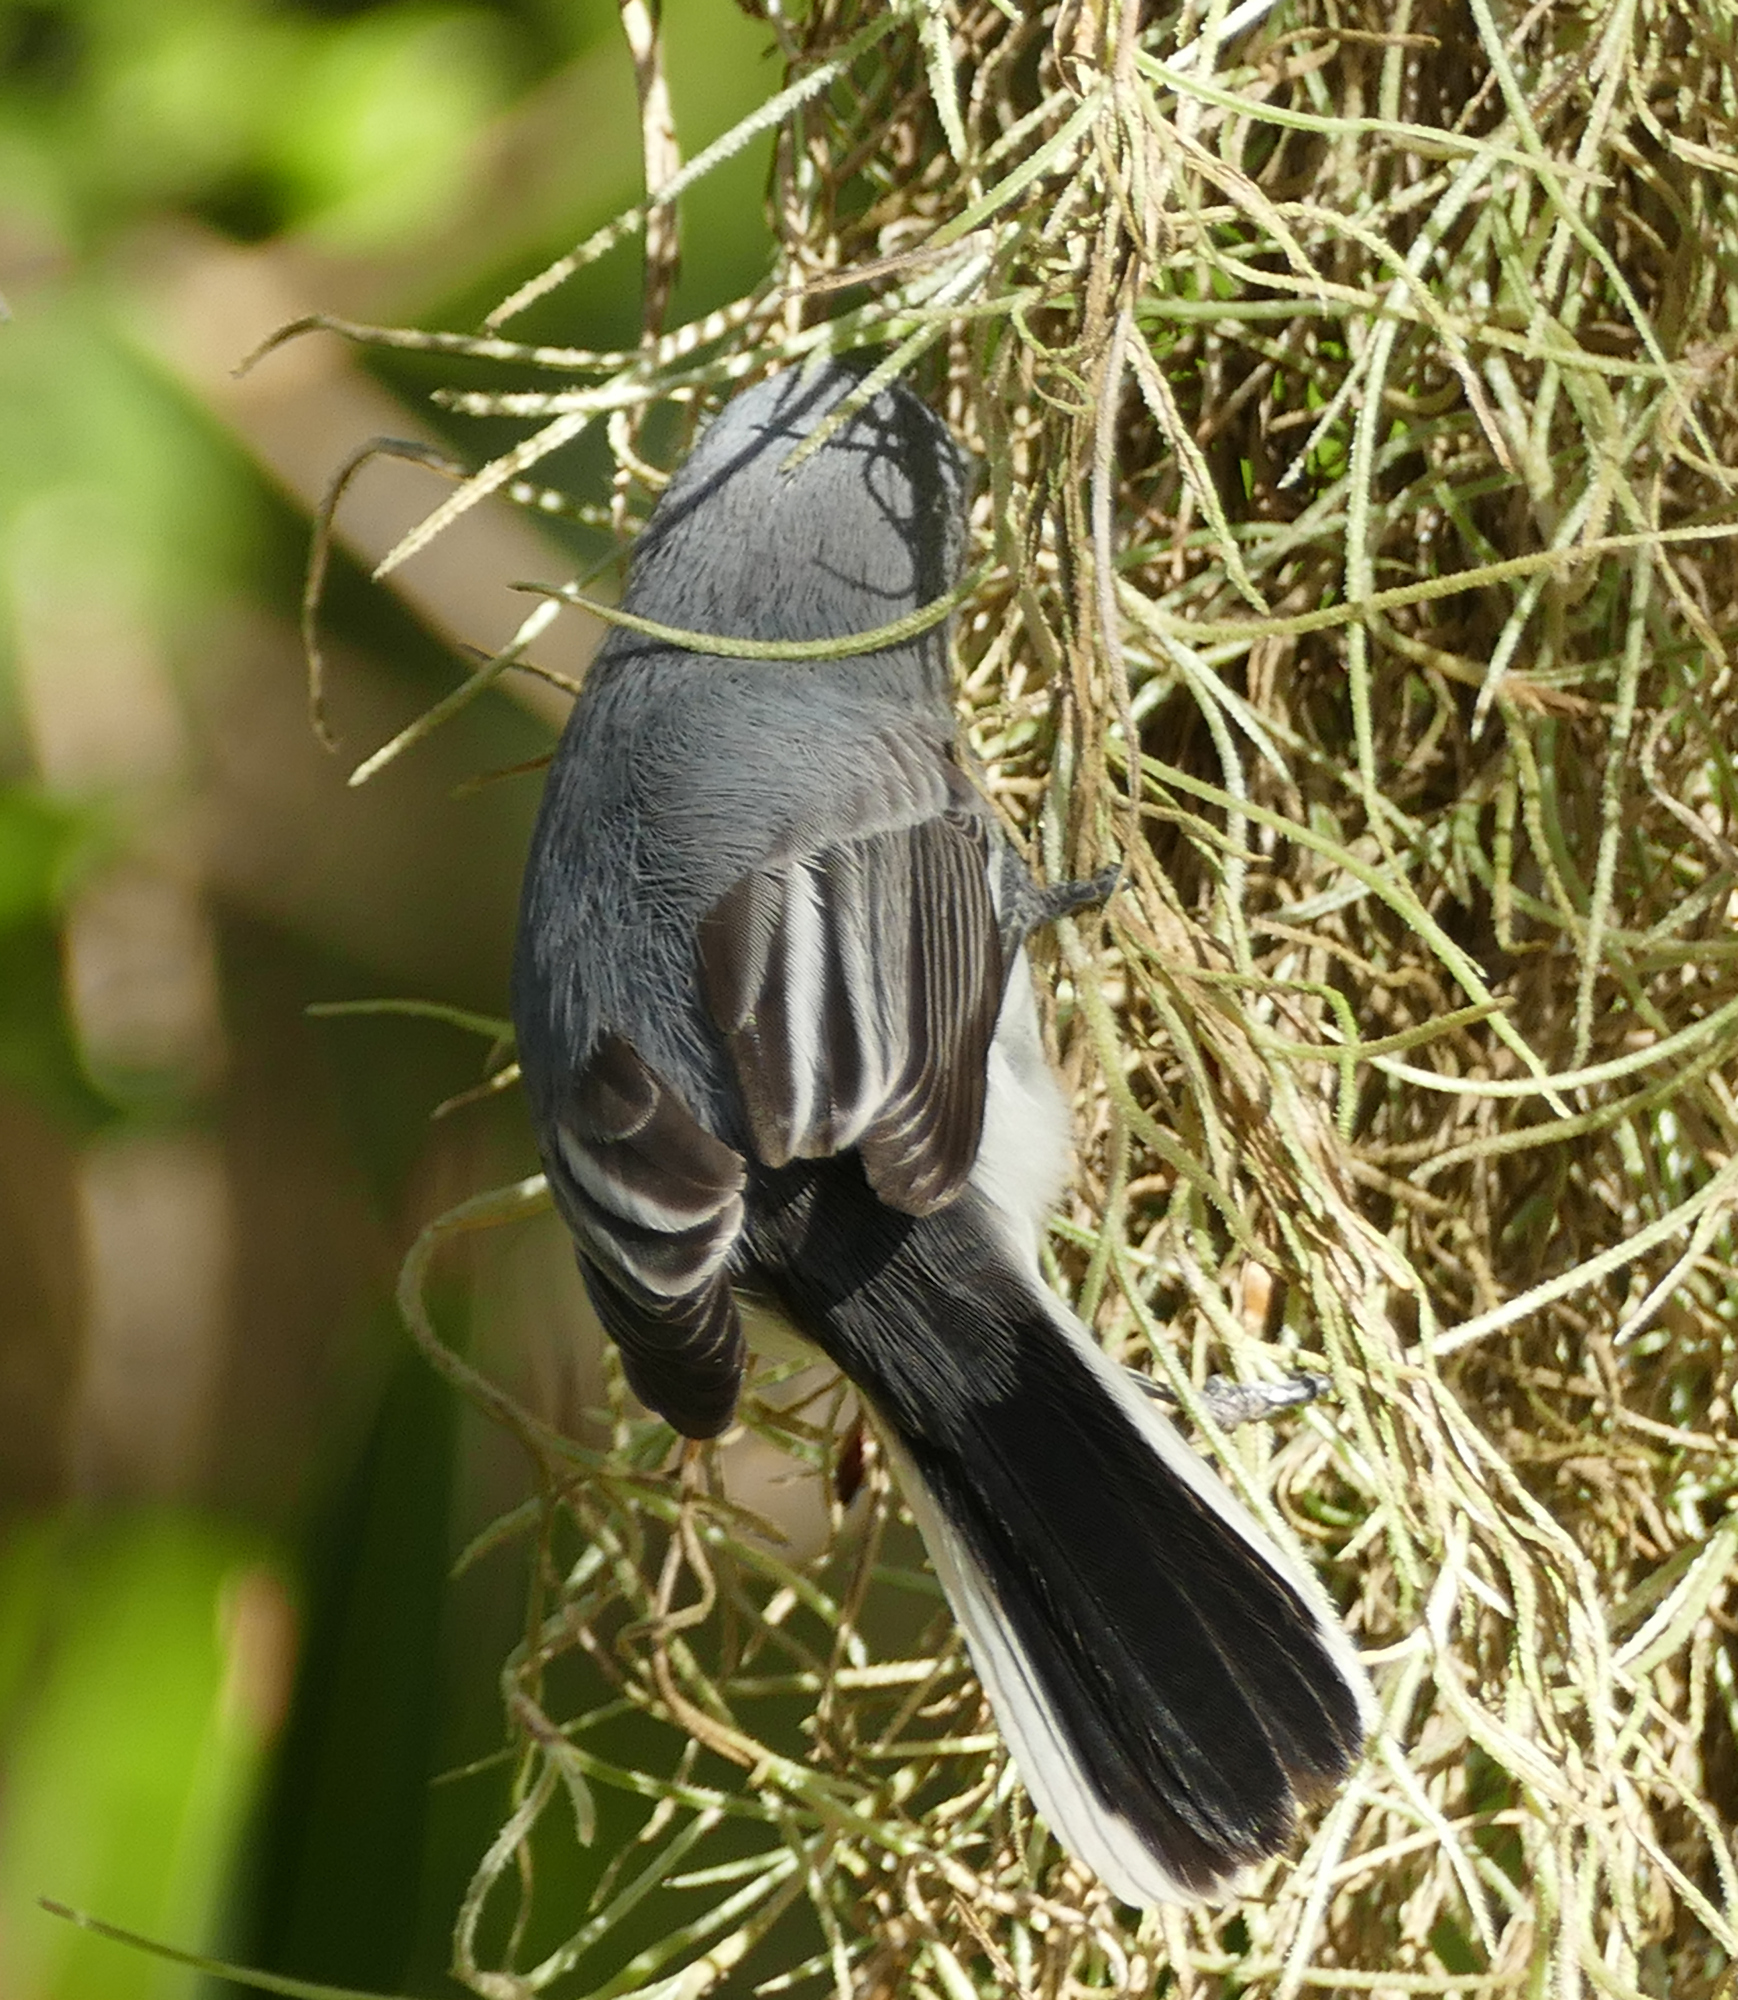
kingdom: Animalia
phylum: Chordata
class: Aves
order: Passeriformes
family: Polioptilidae
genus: Polioptila
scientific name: Polioptila caerulea
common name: Blue-gray gnatcatcher
